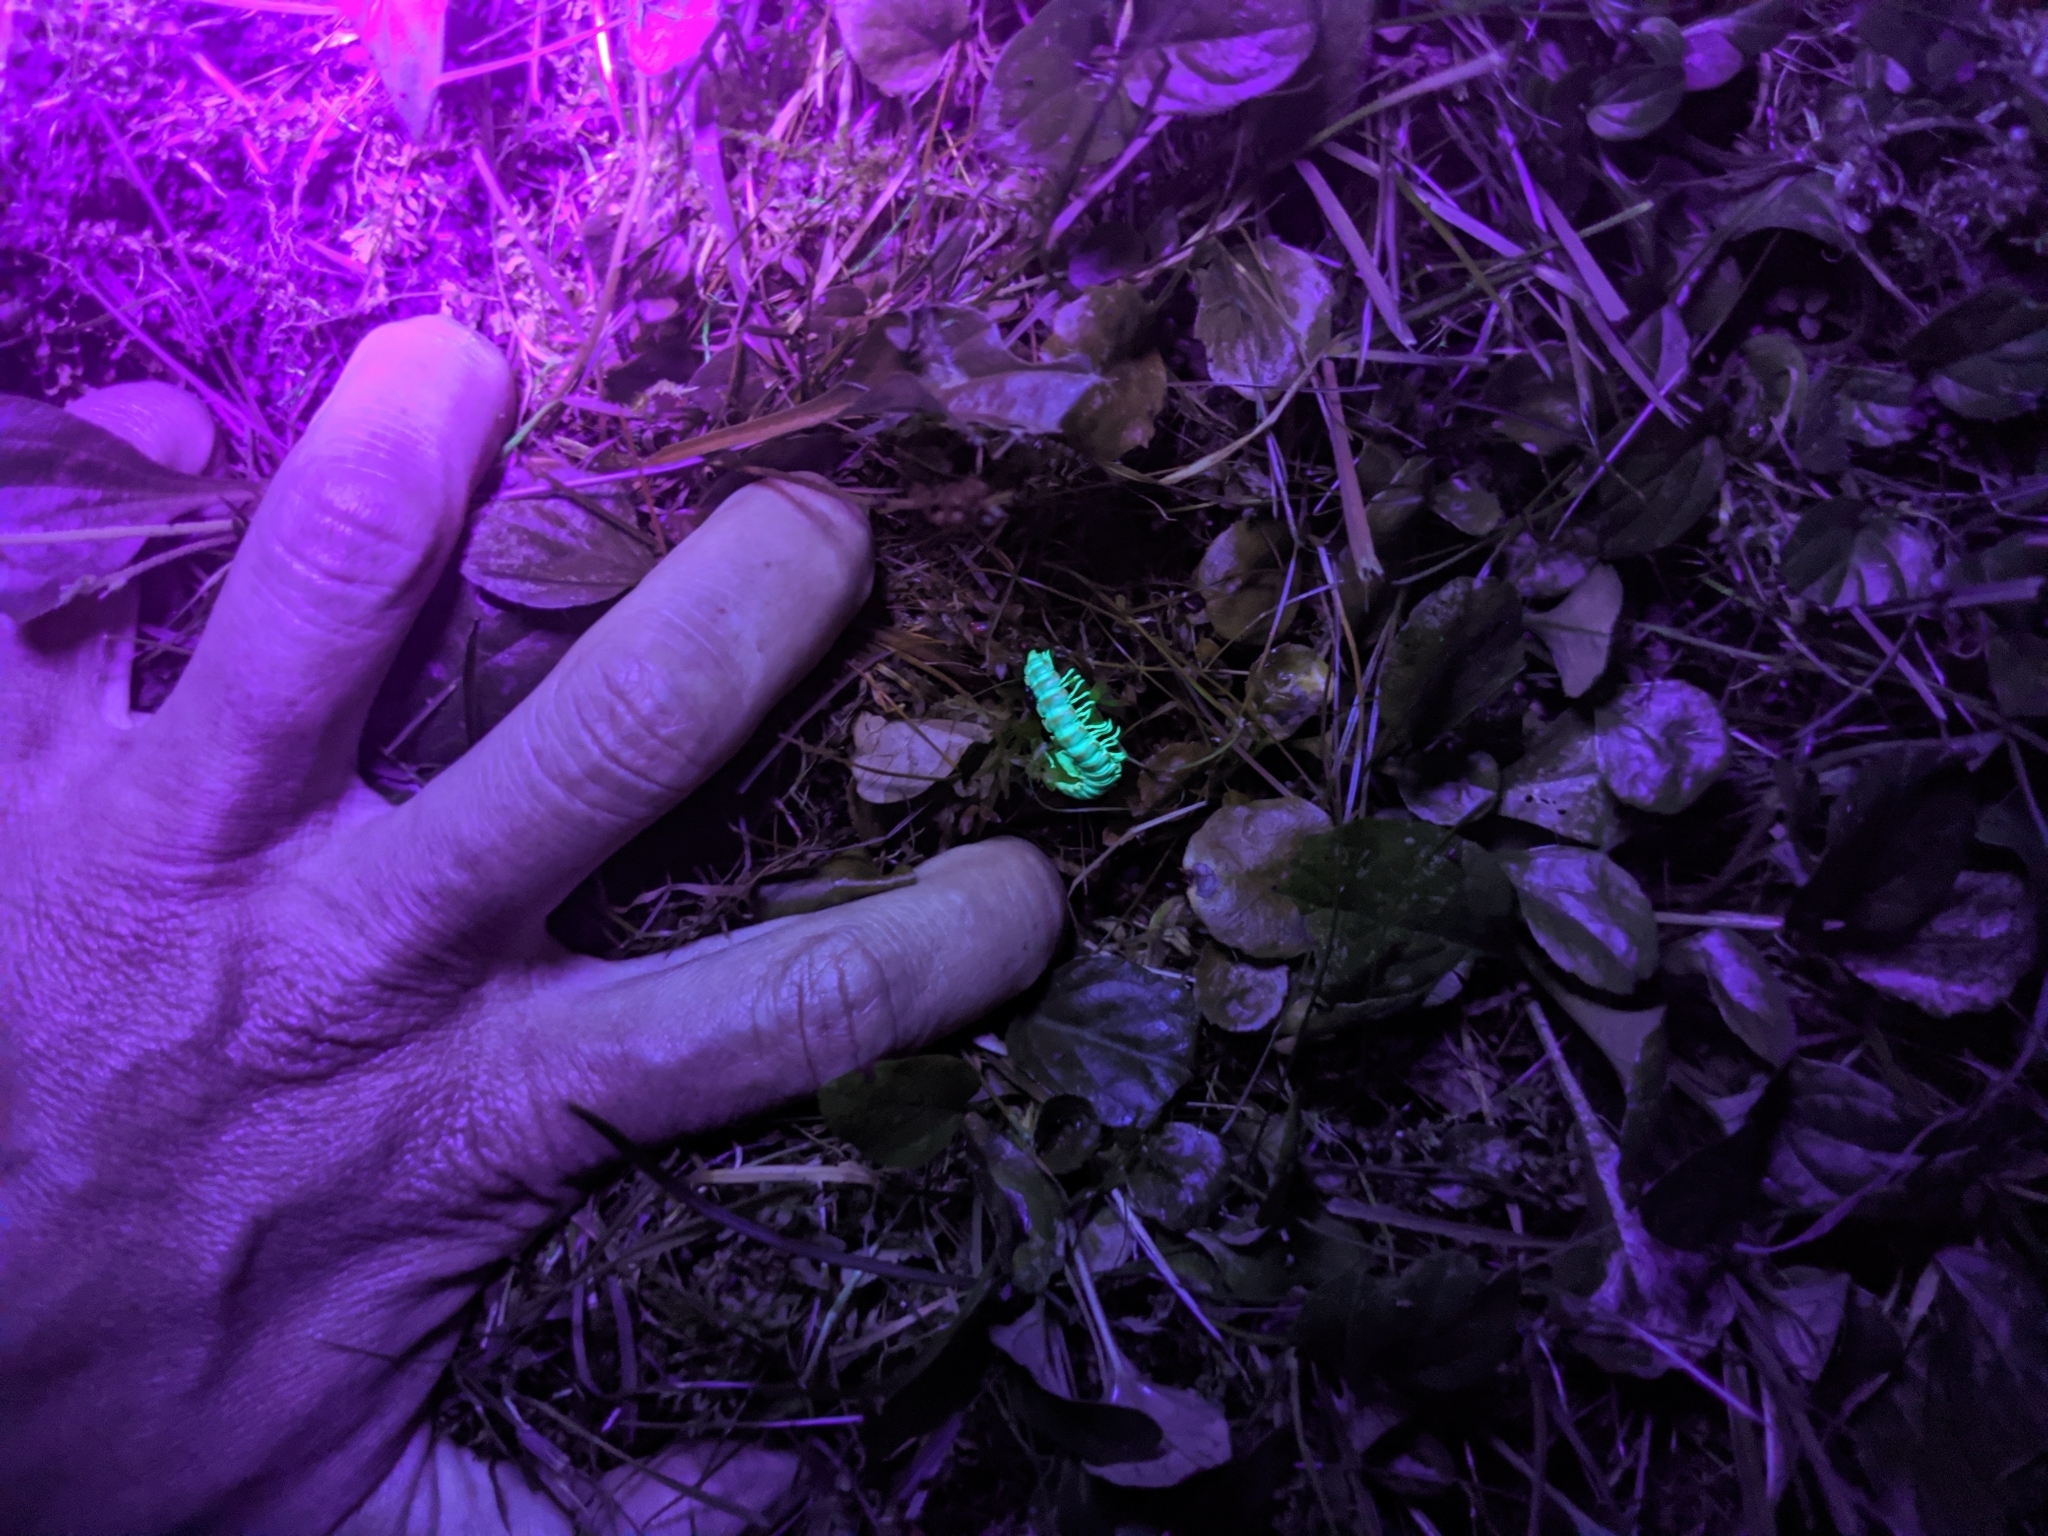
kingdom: Animalia
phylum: Arthropoda
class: Diplopoda
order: Polydesmida
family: Xystodesmidae
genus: Euryurus
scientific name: Euryurus leachii
